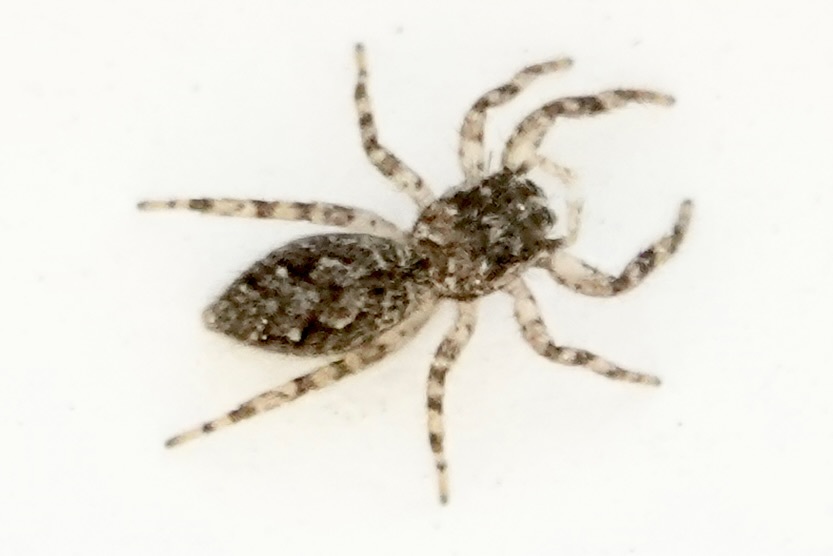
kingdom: Animalia
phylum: Arthropoda
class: Arachnida
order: Araneae
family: Salticidae
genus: Platycryptus
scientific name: Platycryptus undatus
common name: Tan jumping spider
